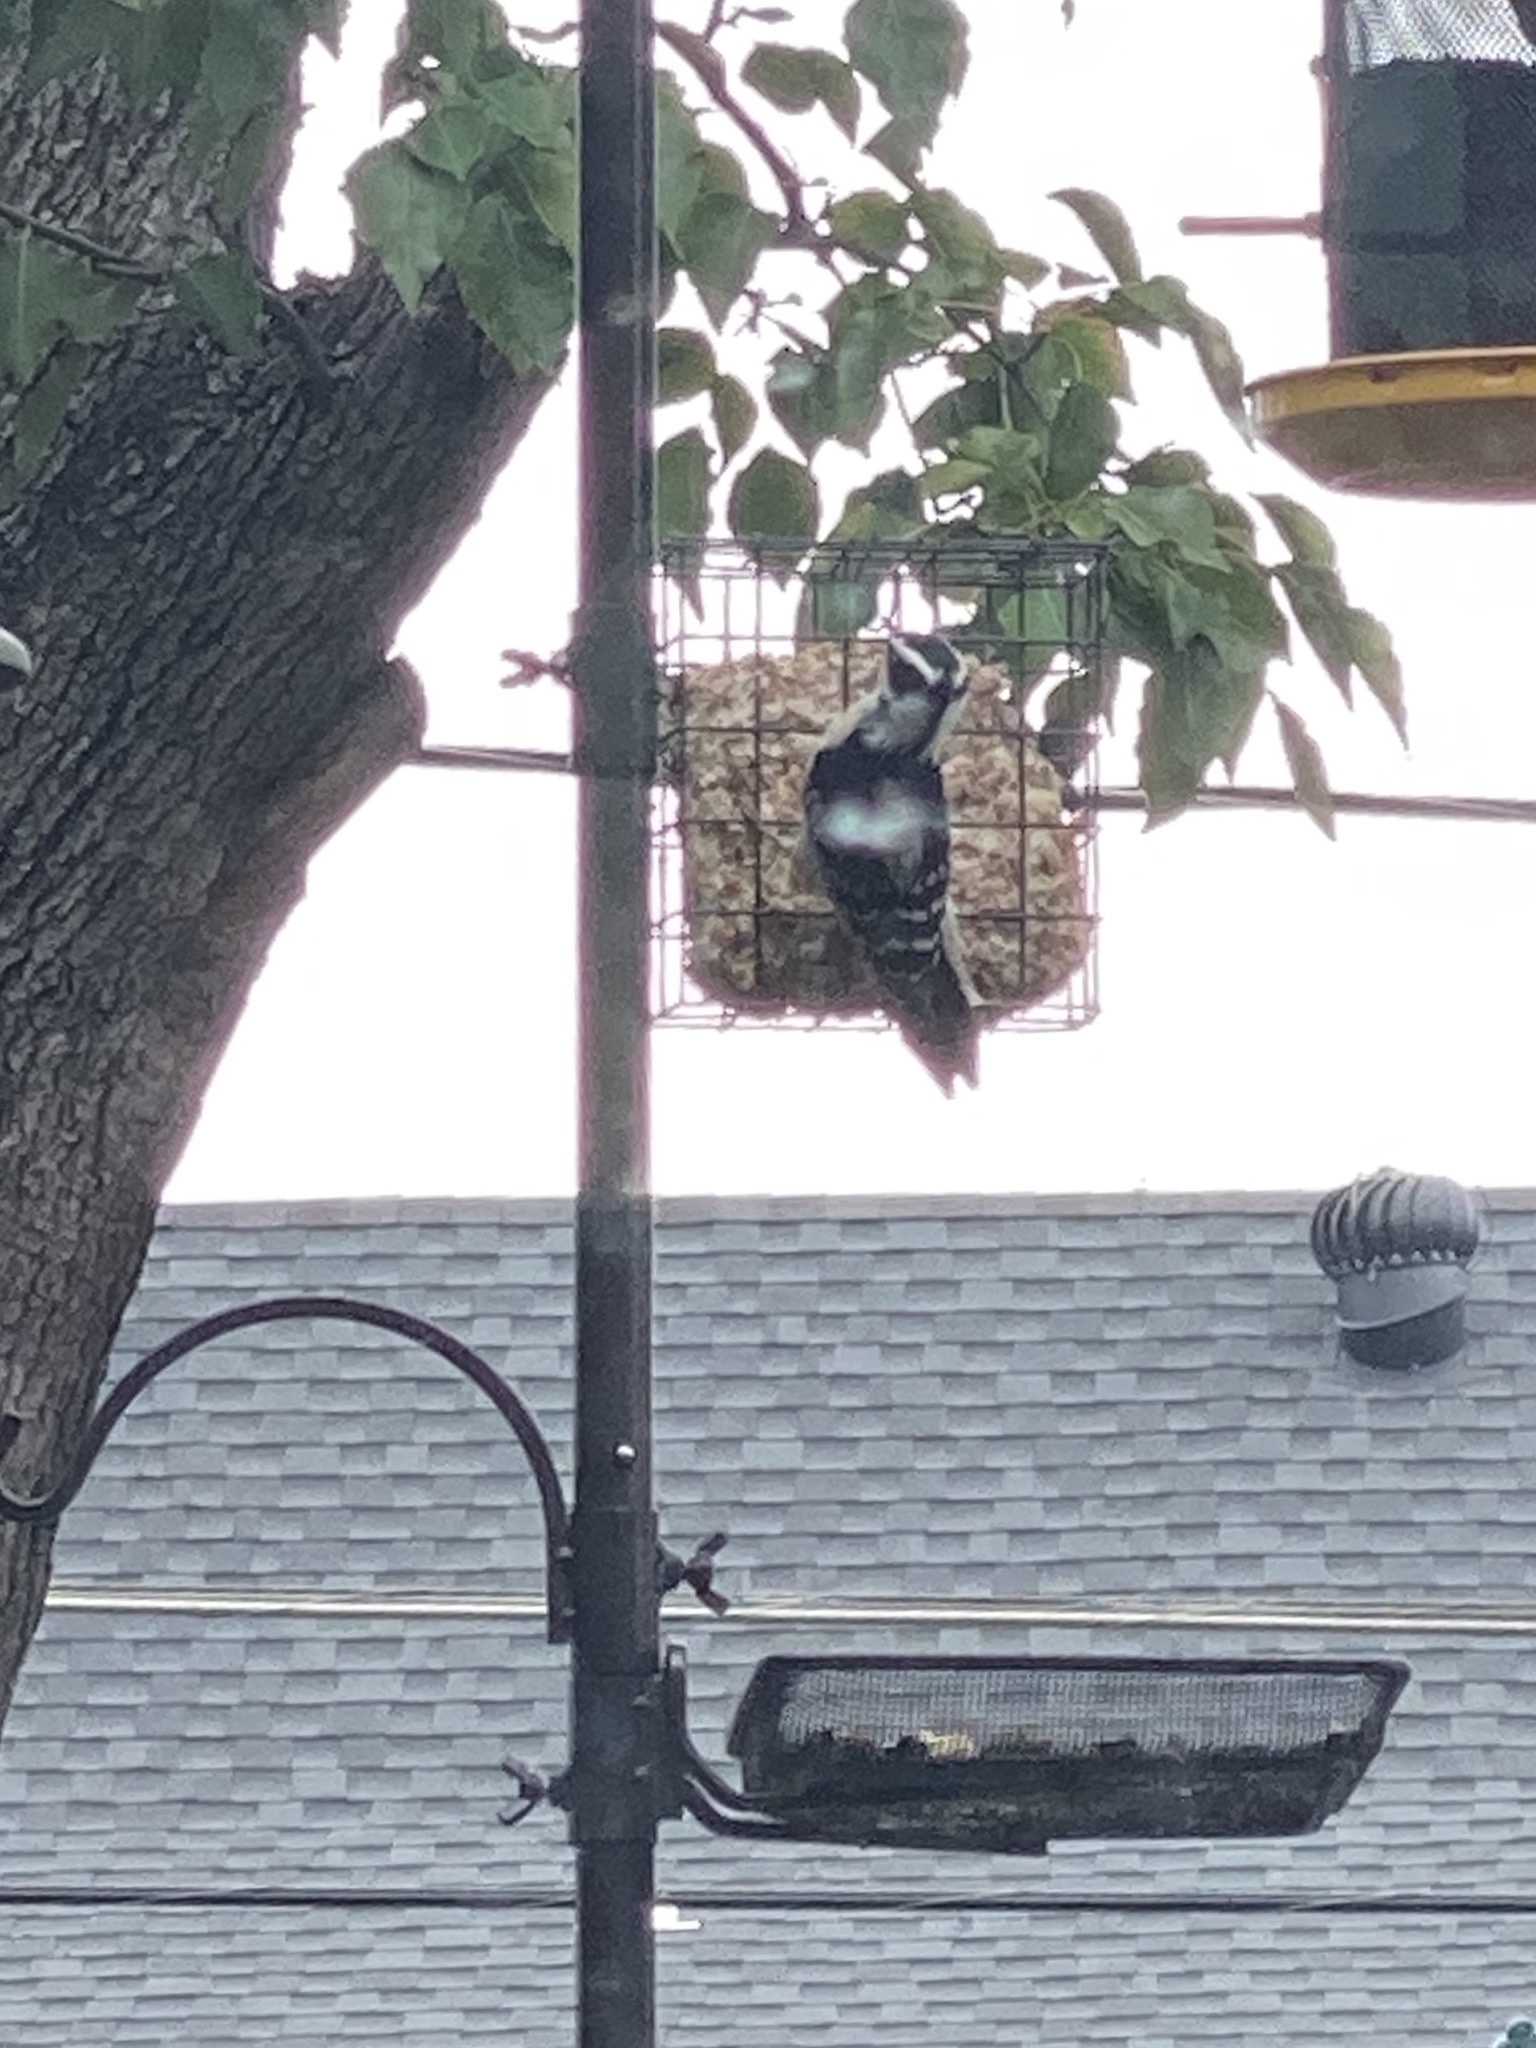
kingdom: Animalia
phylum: Chordata
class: Aves
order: Piciformes
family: Picidae
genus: Dryobates
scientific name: Dryobates pubescens
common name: Downy woodpecker
